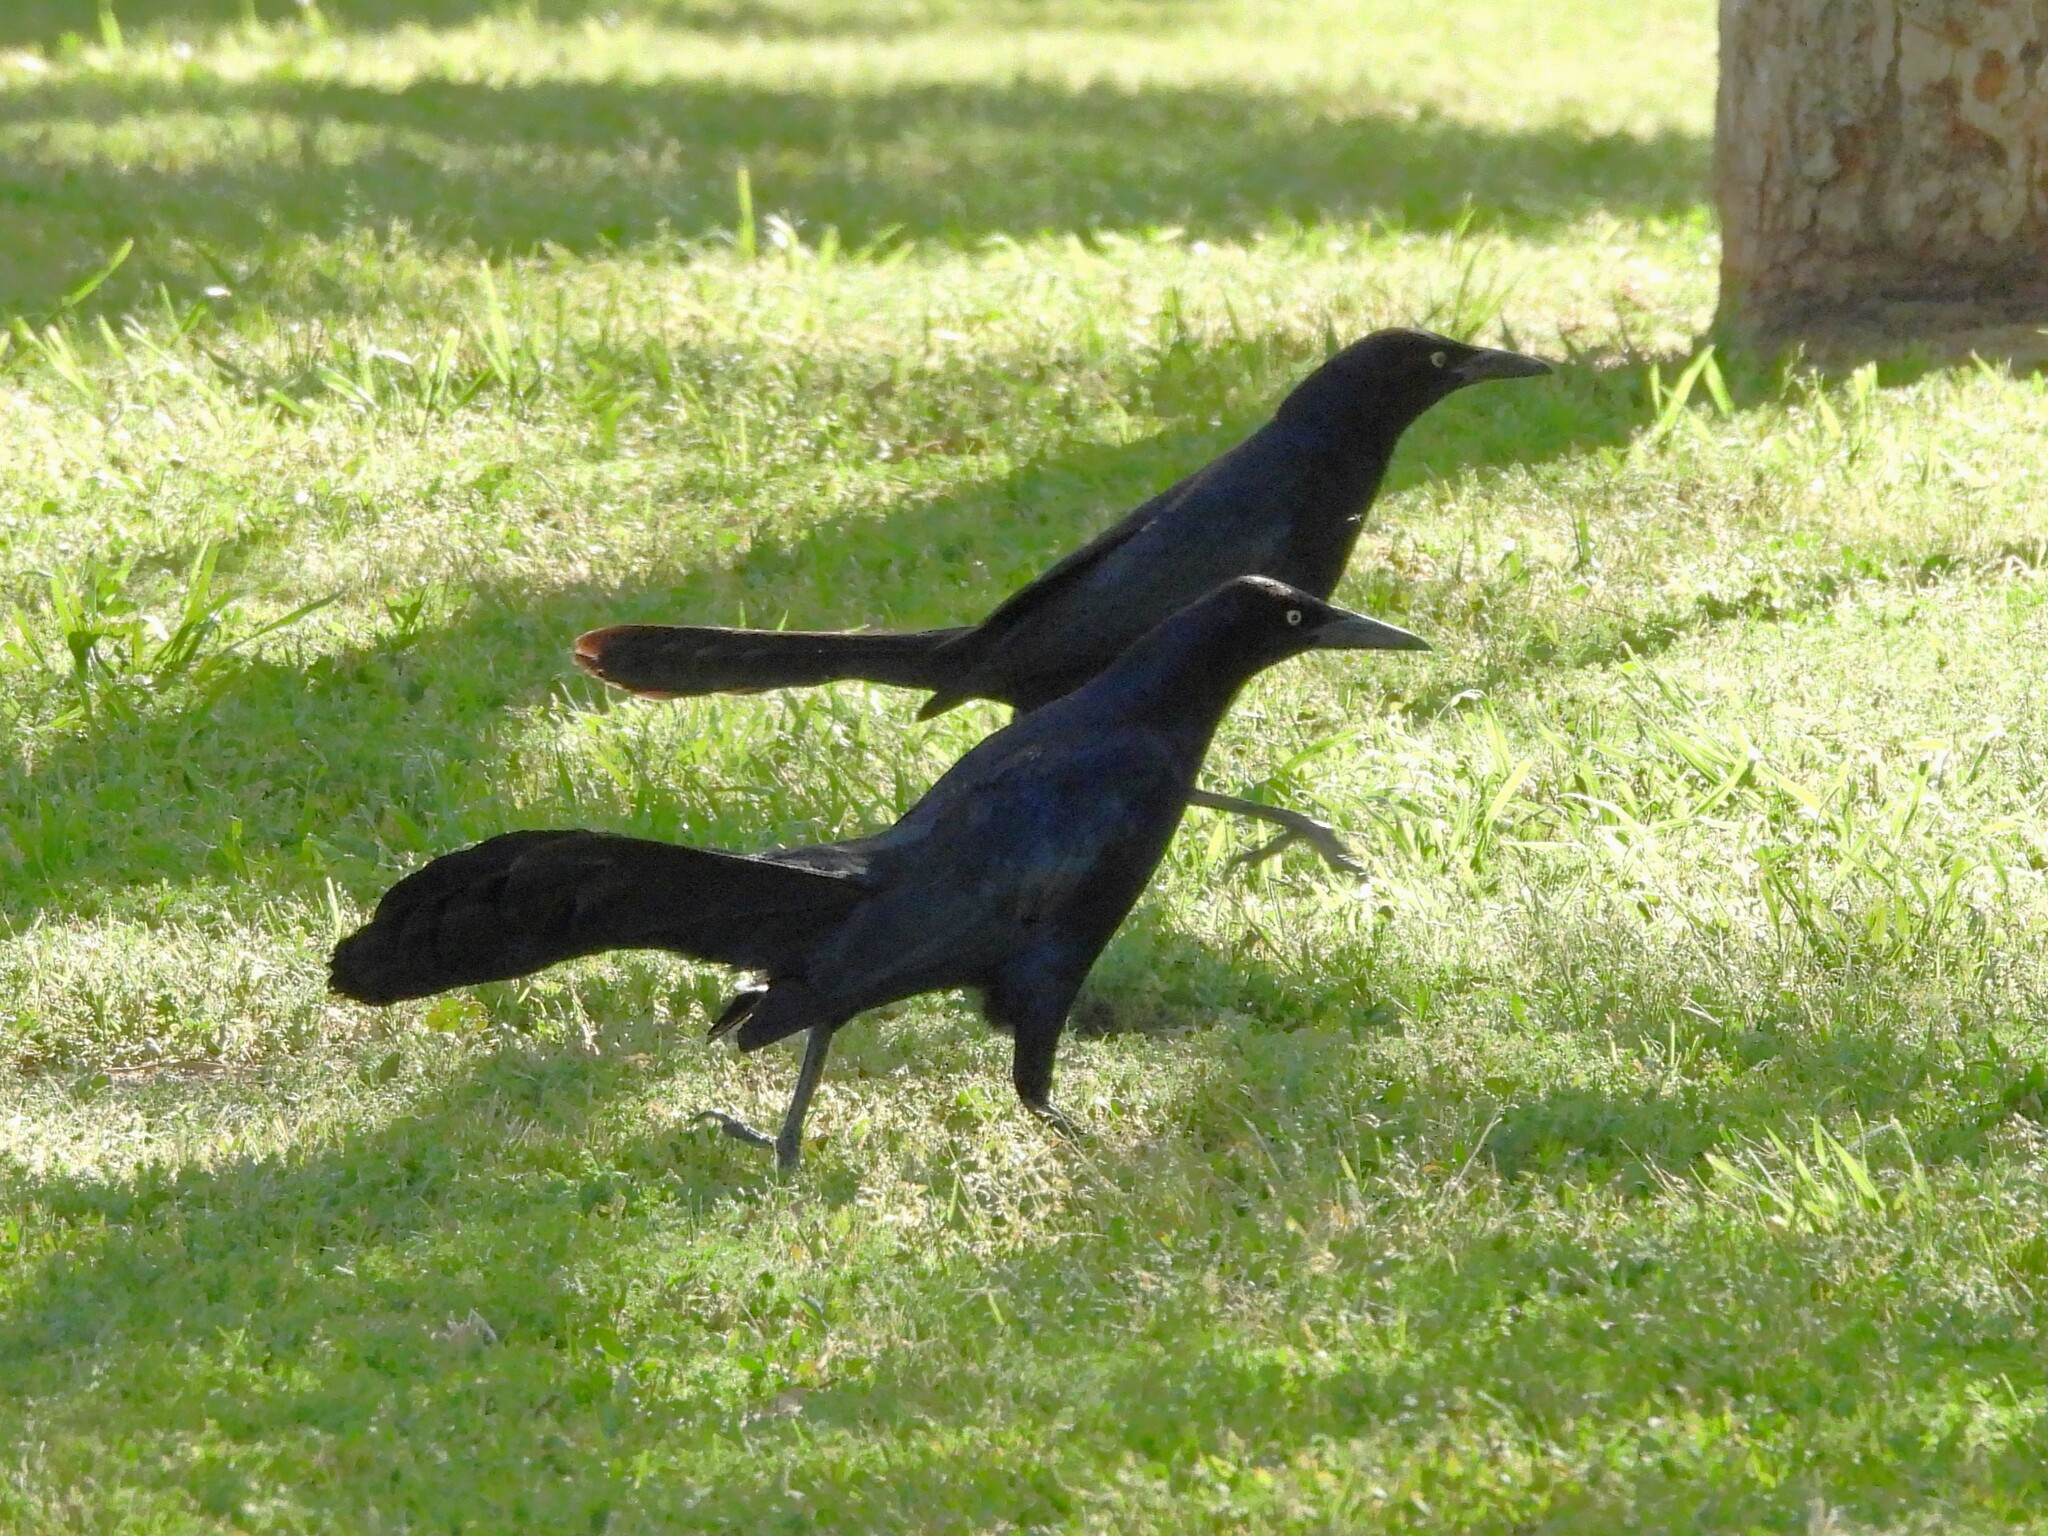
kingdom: Animalia
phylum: Chordata
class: Aves
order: Passeriformes
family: Icteridae
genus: Quiscalus
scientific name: Quiscalus mexicanus
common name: Great-tailed grackle
